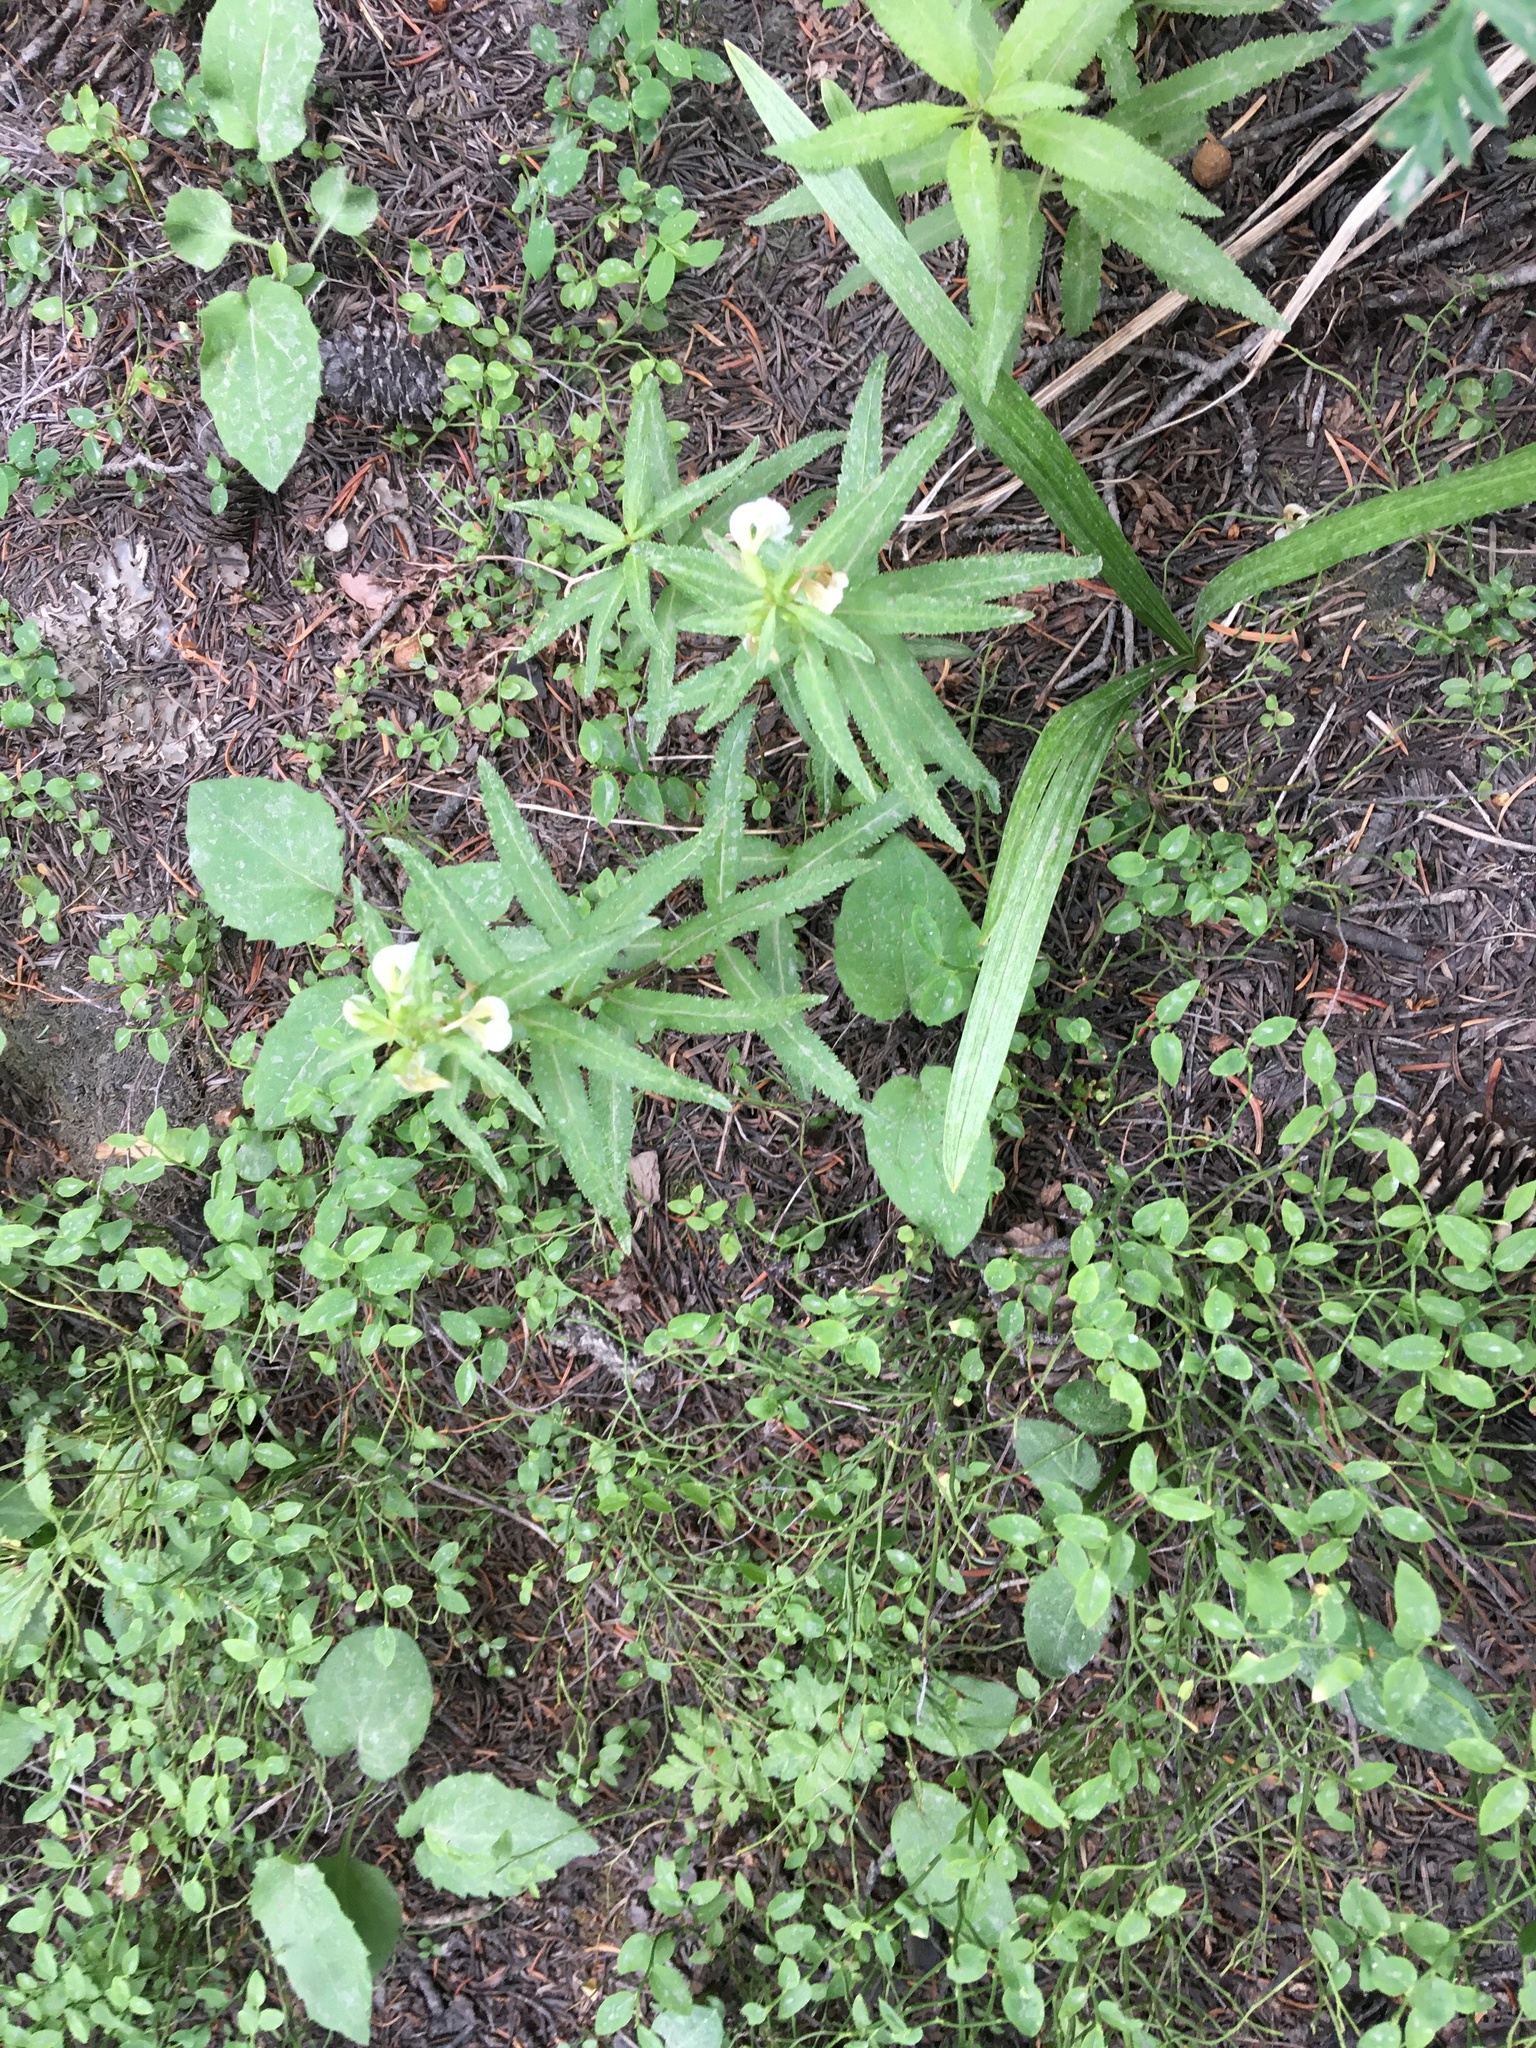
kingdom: Plantae
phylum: Tracheophyta
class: Magnoliopsida
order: Lamiales
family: Orobanchaceae
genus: Pedicularis
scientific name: Pedicularis racemosa
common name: Leafy lousewort
